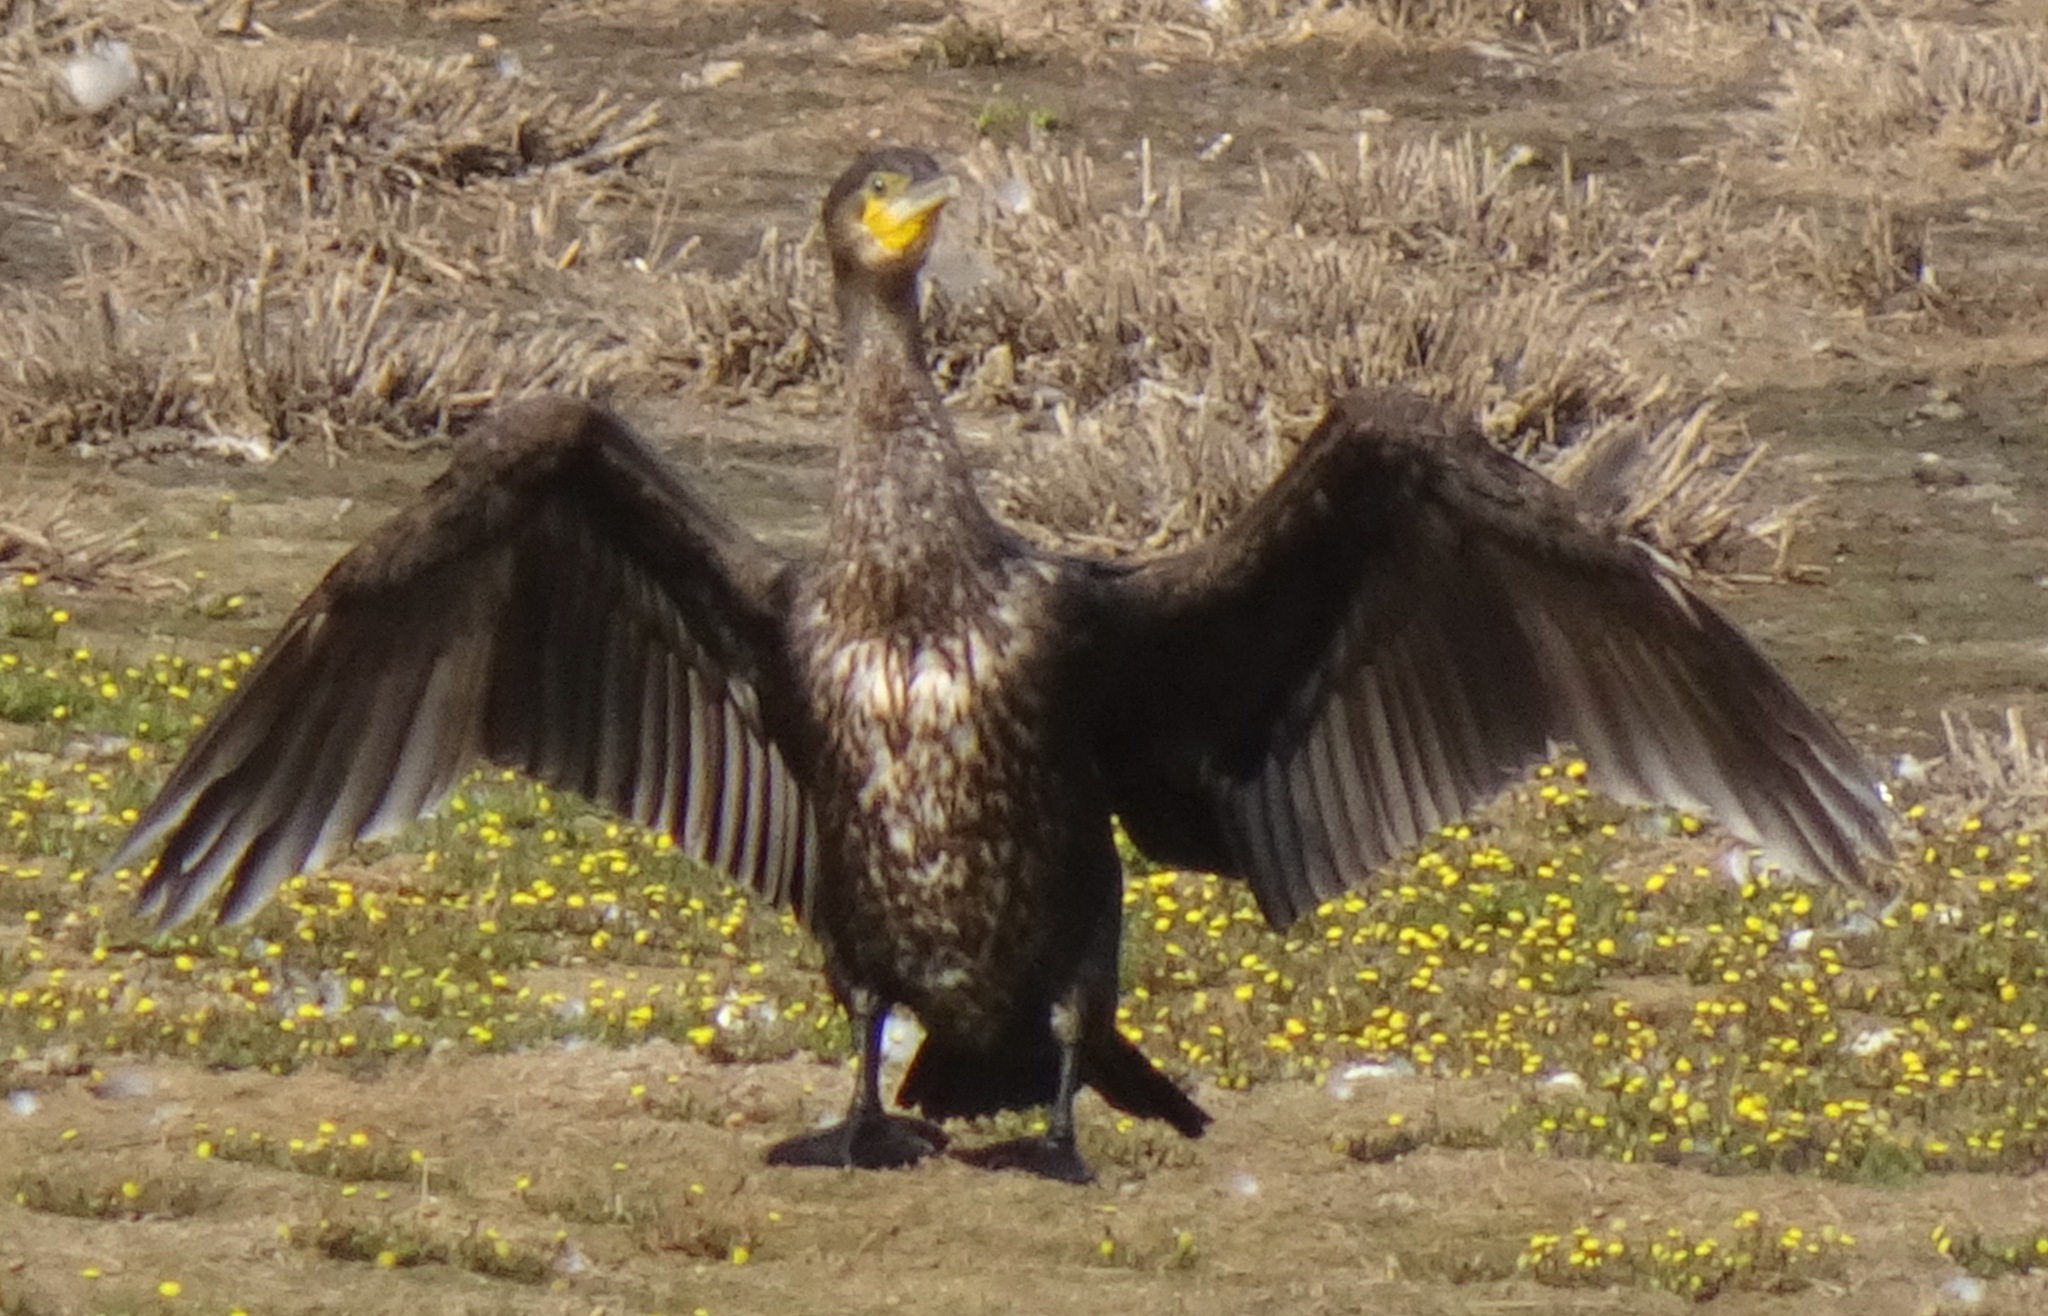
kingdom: Animalia
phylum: Chordata
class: Aves
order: Suliformes
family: Phalacrocoracidae
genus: Phalacrocorax
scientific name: Phalacrocorax carbo
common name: Great cormorant
